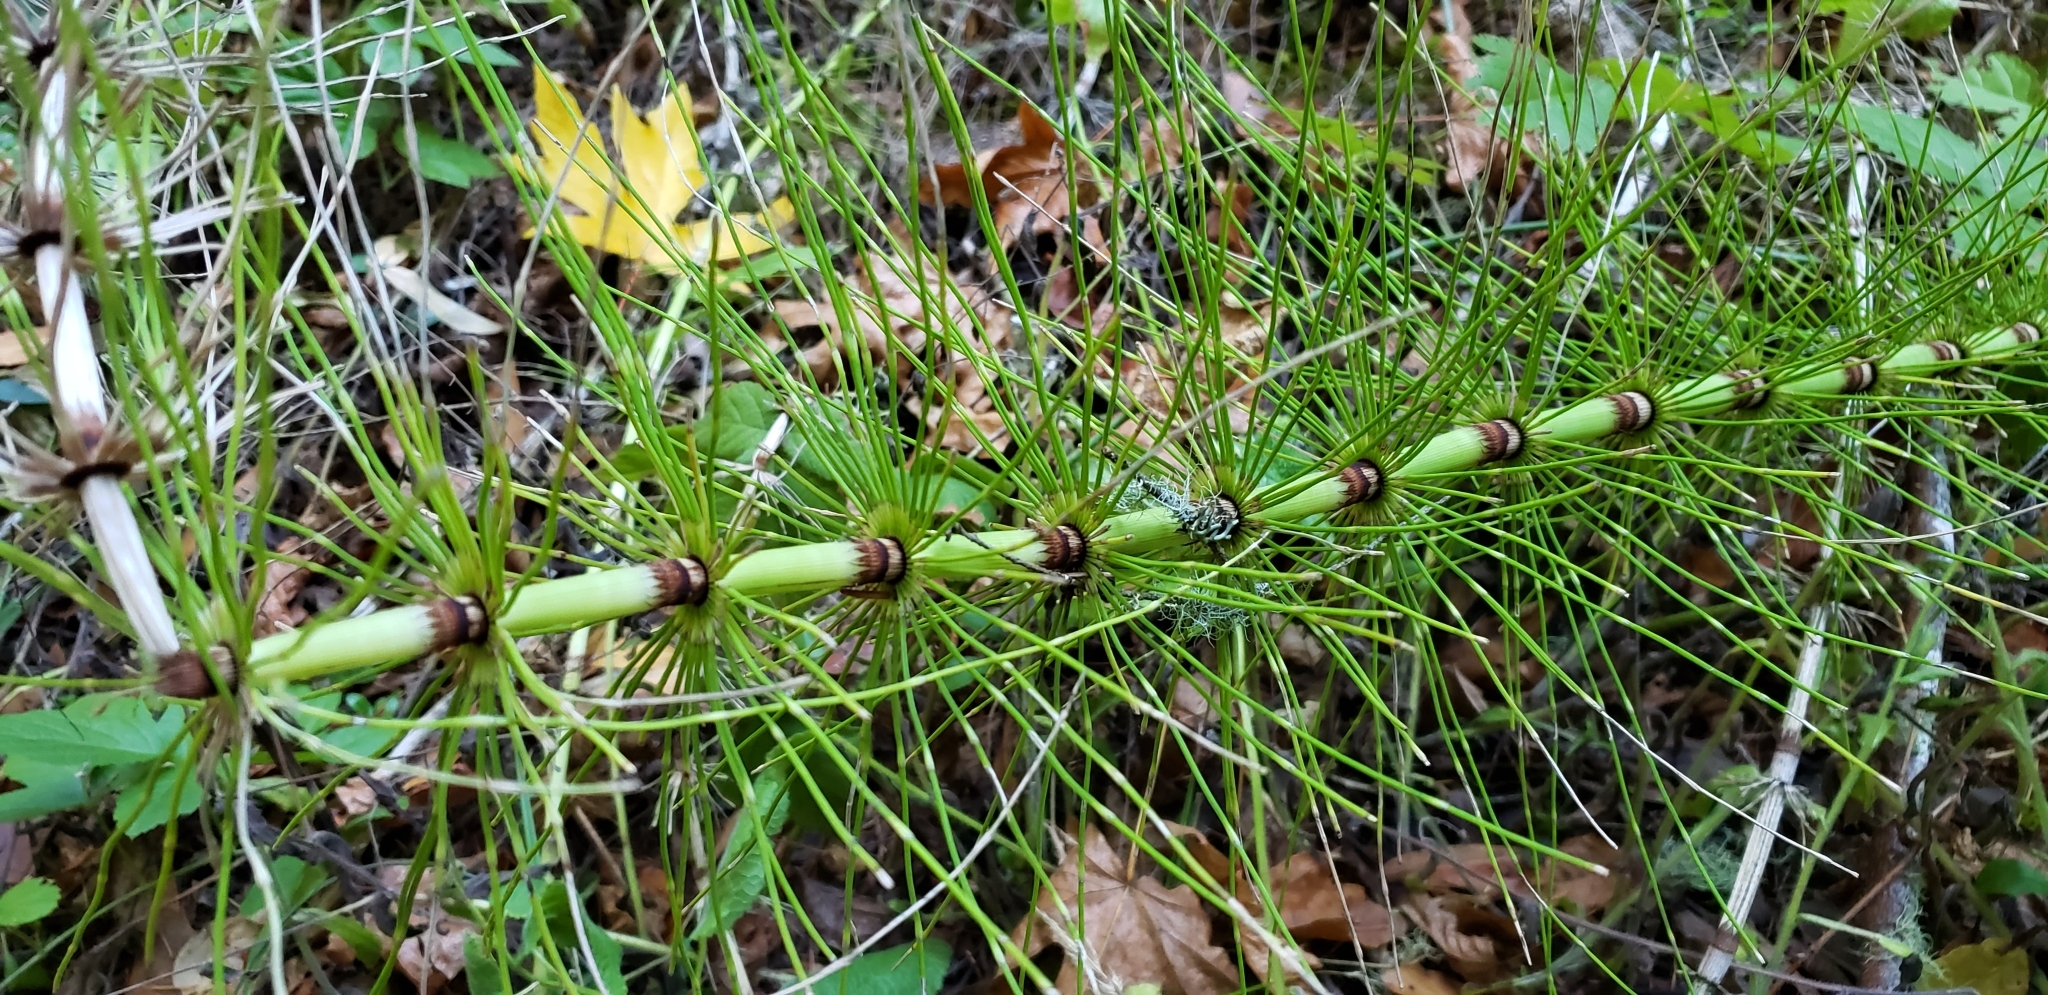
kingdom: Plantae
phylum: Tracheophyta
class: Polypodiopsida
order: Equisetales
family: Equisetaceae
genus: Equisetum
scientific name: Equisetum braunii
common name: Braun's horsetail
